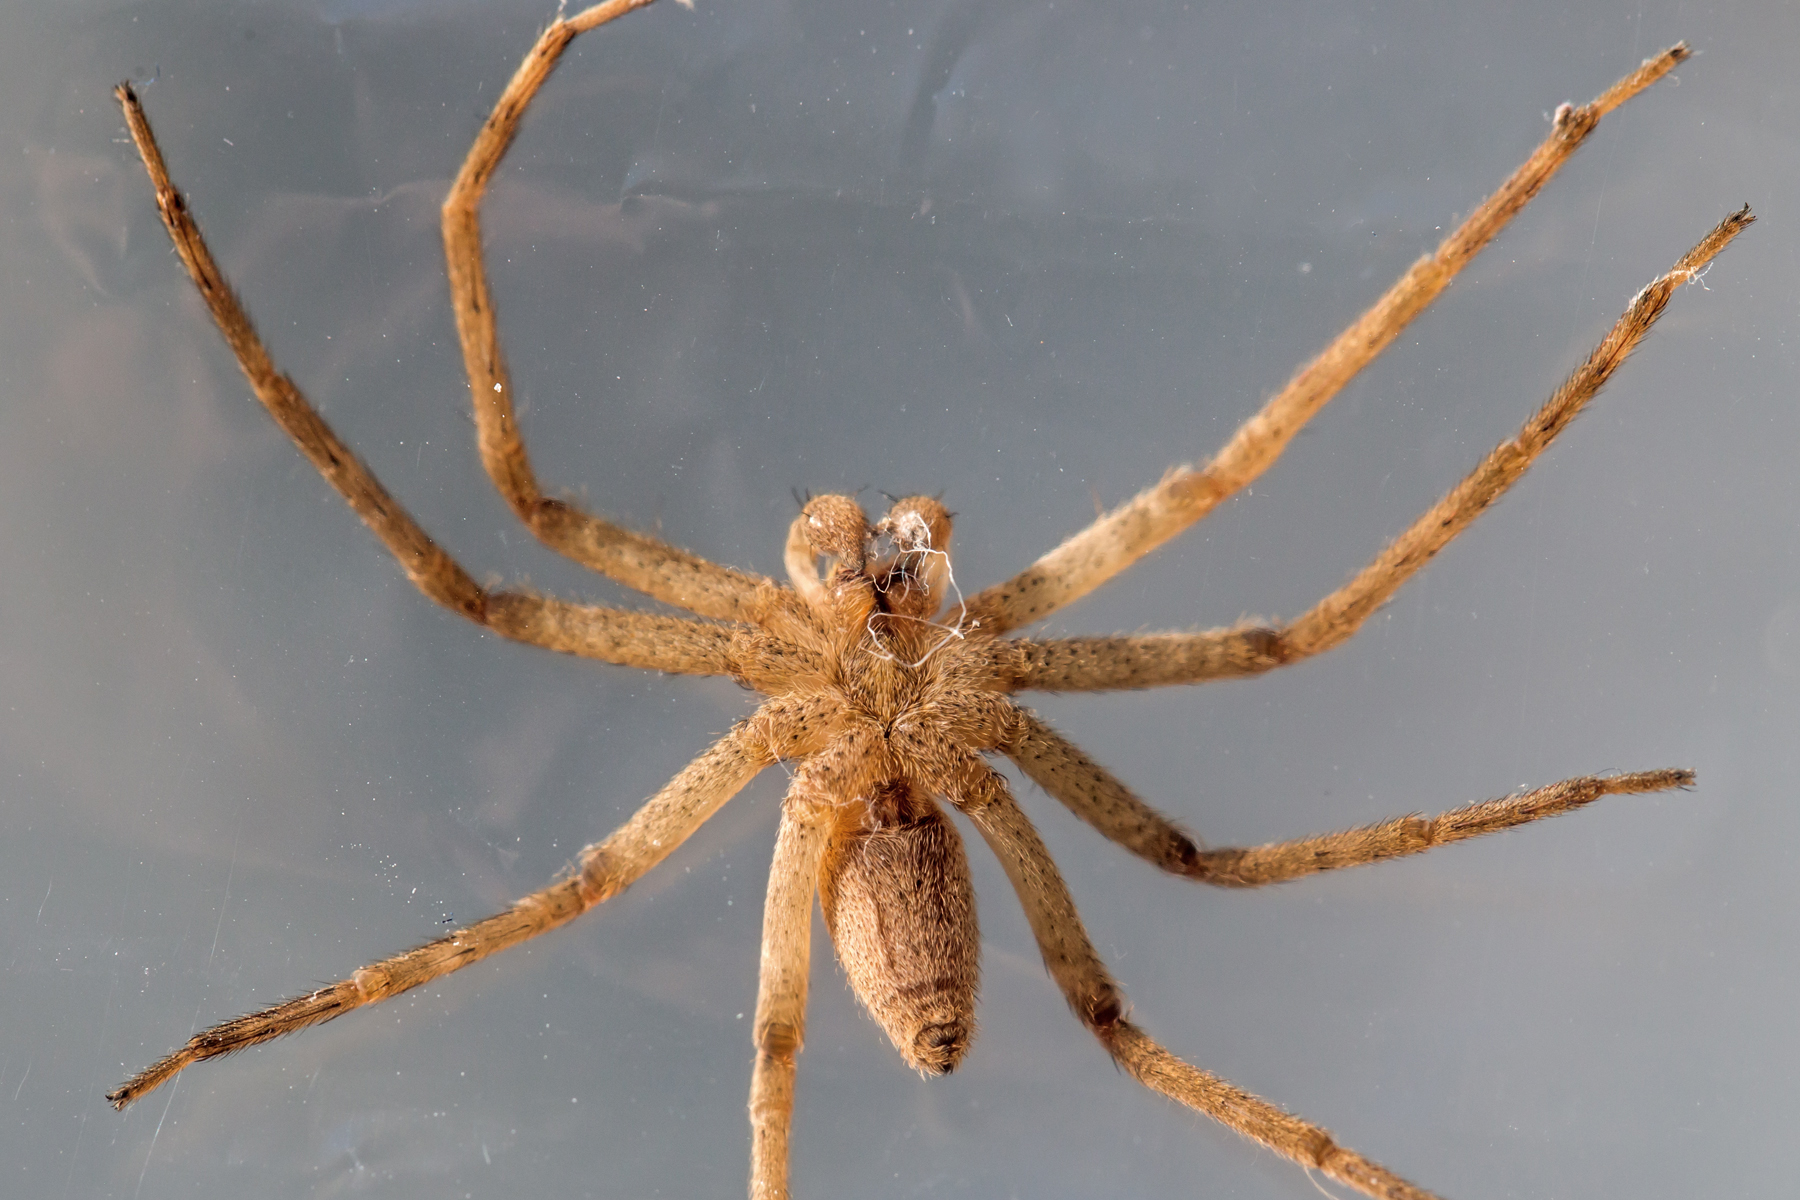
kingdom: Animalia
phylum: Arthropoda
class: Arachnida
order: Araneae
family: Pisauridae
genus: Pisaurina
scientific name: Pisaurina mira
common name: American nursery web spider
